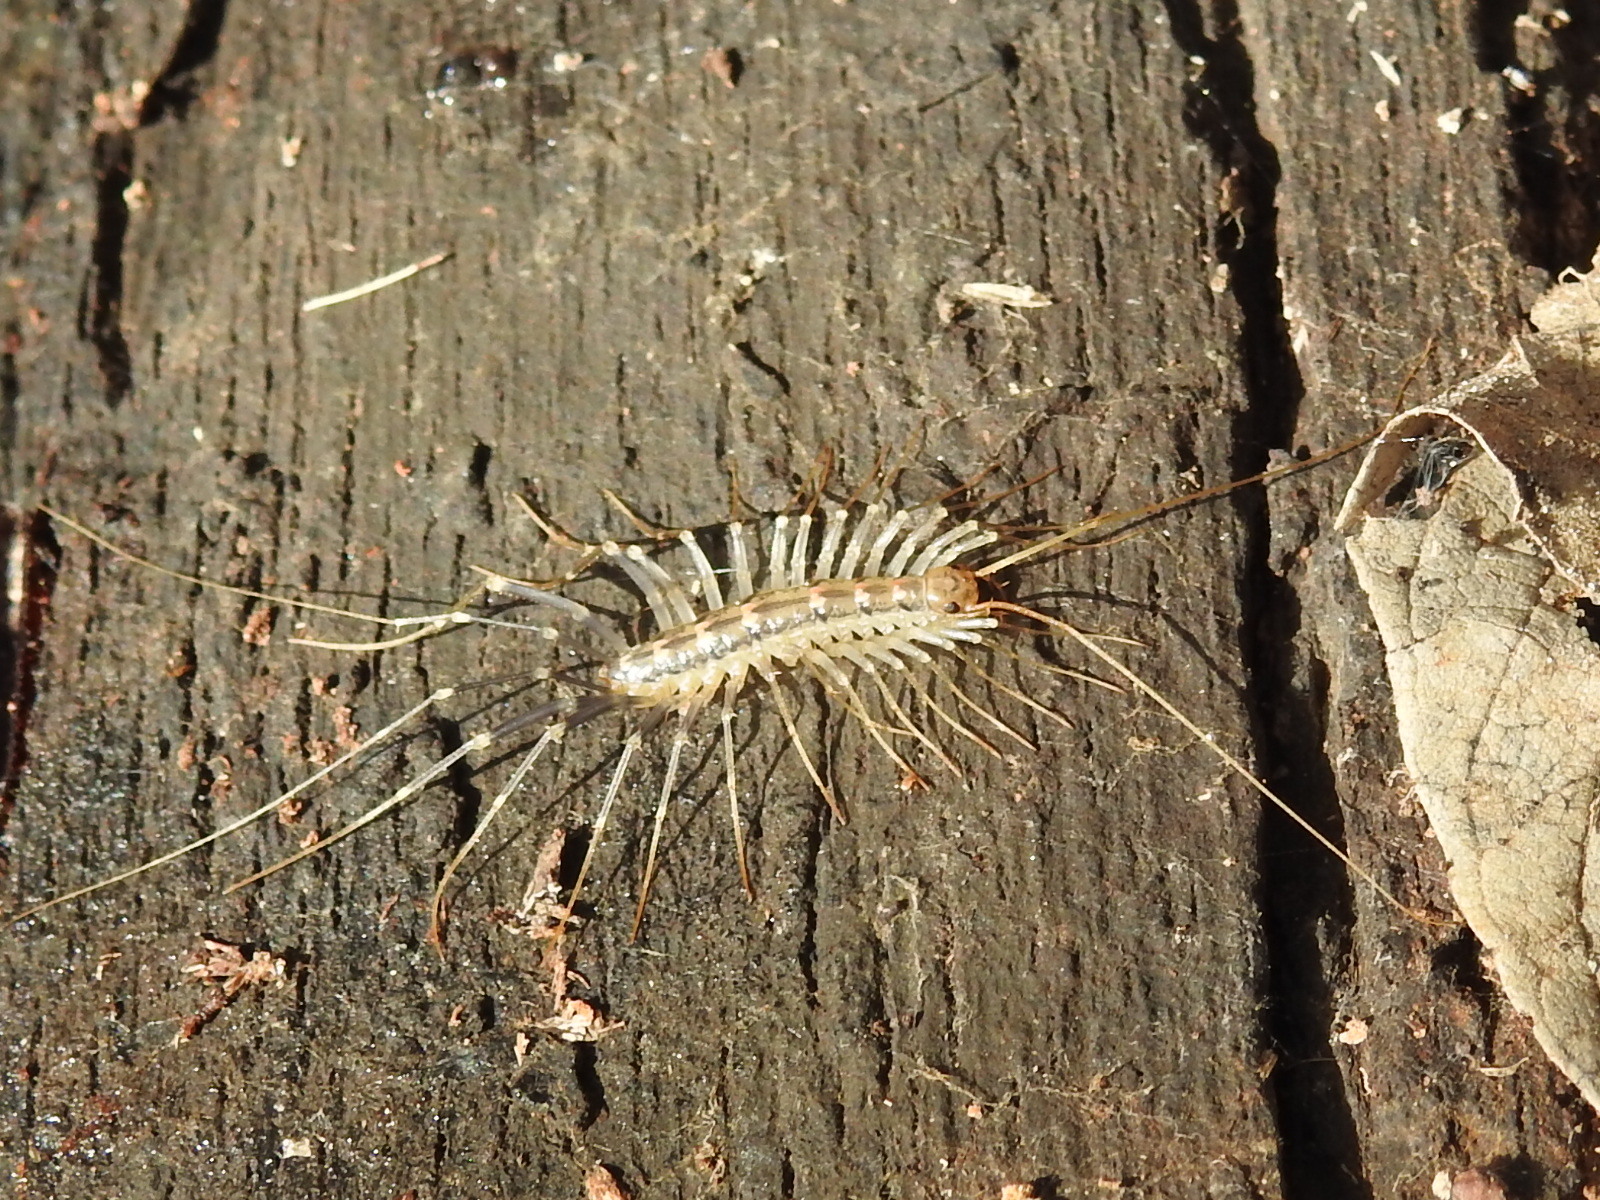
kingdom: Animalia
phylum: Arthropoda
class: Chilopoda
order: Scutigeromorpha
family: Scutigeridae
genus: Scutigera
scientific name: Scutigera coleoptrata
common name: House centipede
